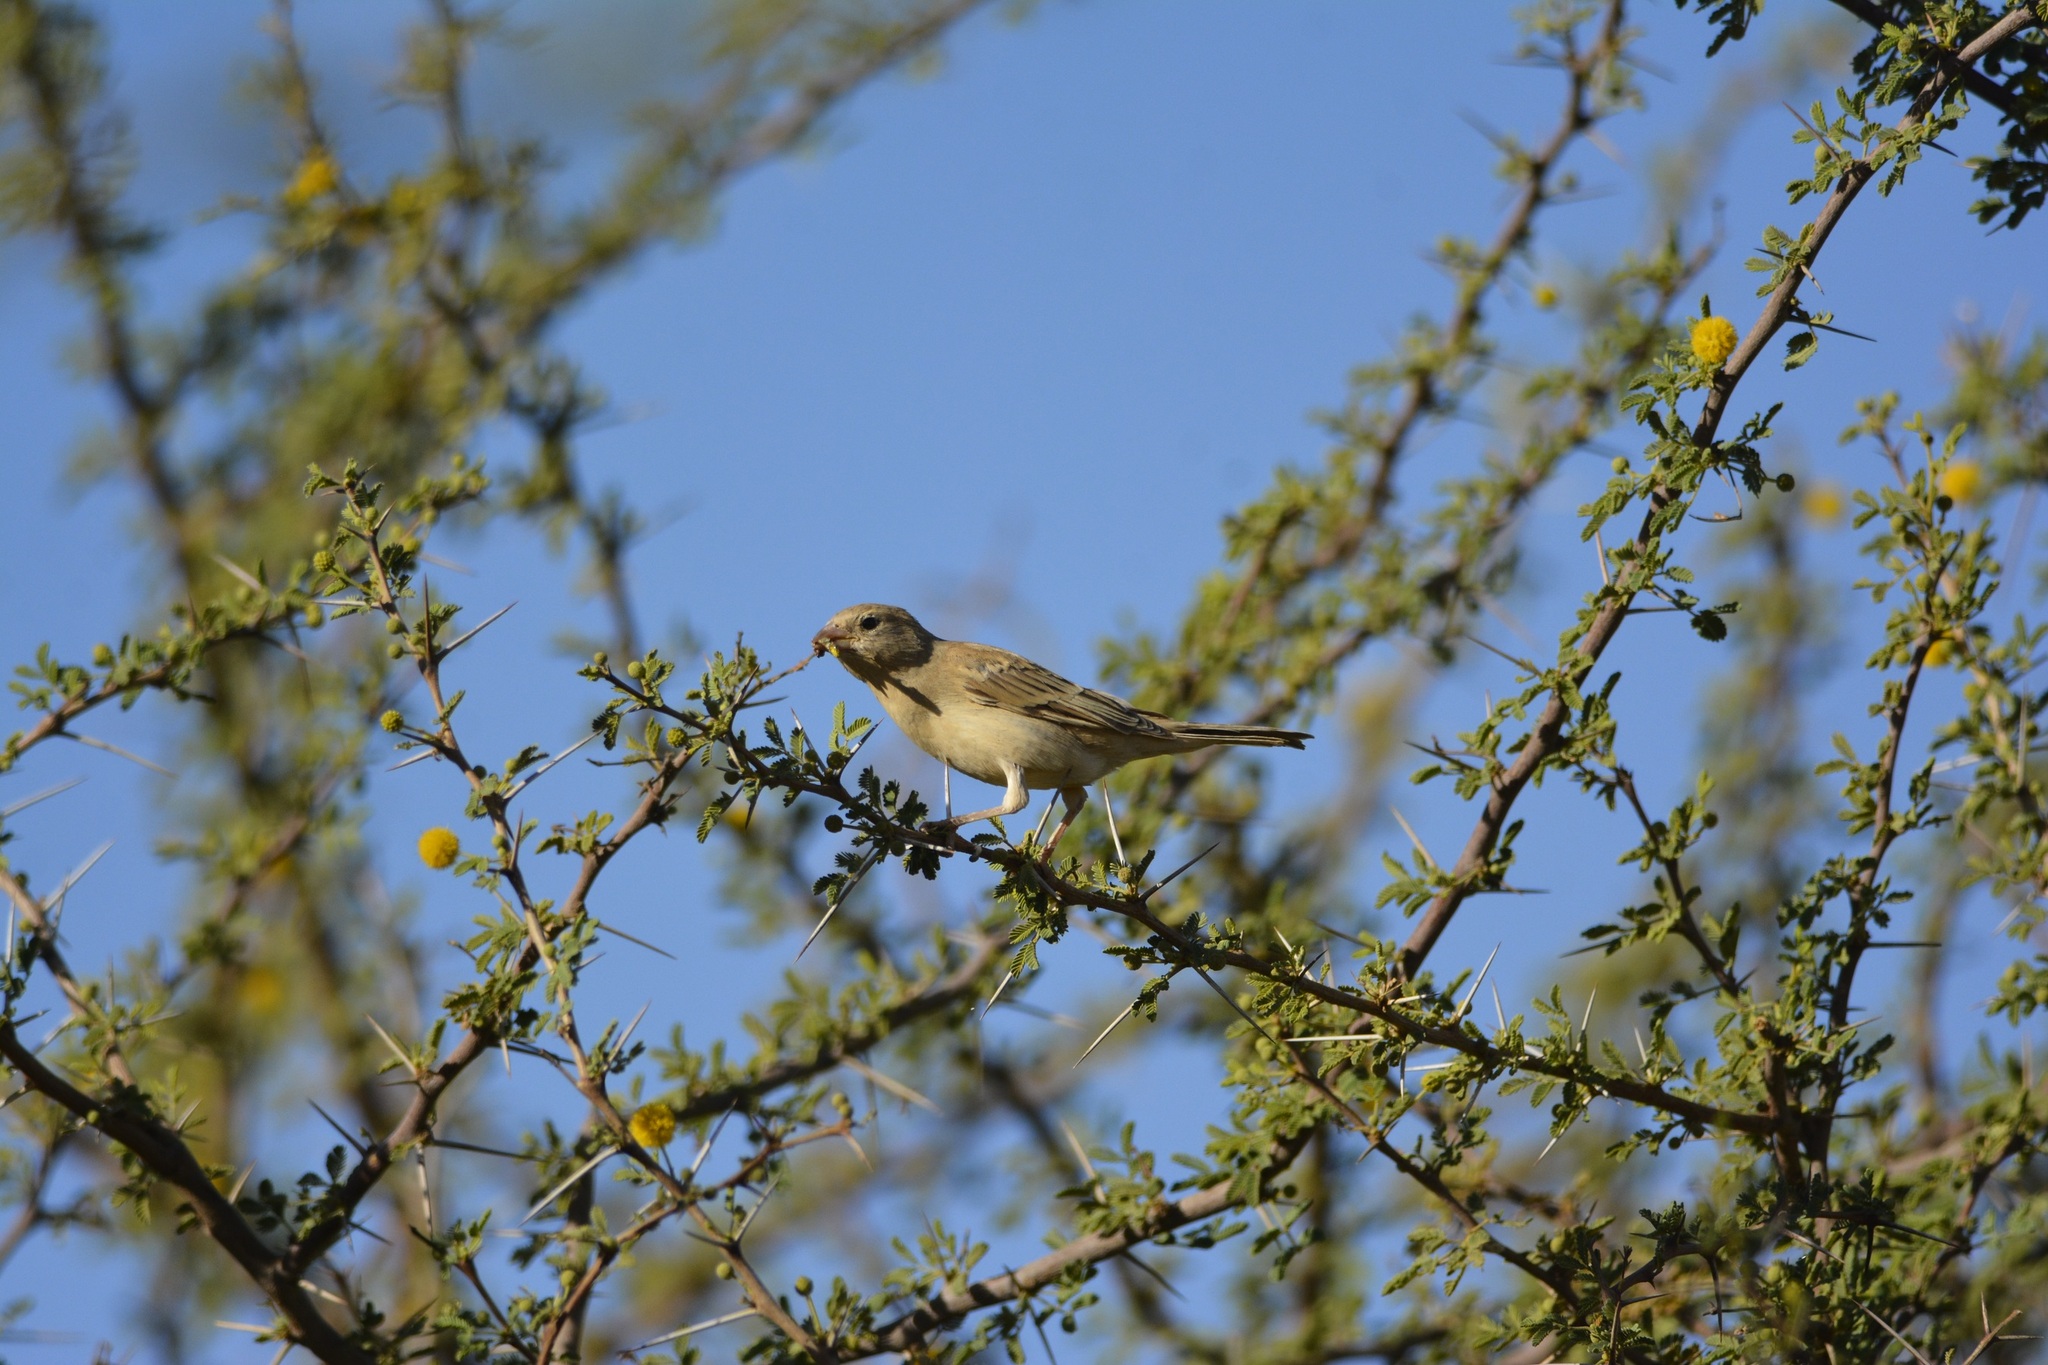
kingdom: Animalia
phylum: Chordata
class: Aves
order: Passeriformes
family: Passeridae
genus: Passer
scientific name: Passer luteus
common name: Sudan golden sparrow
